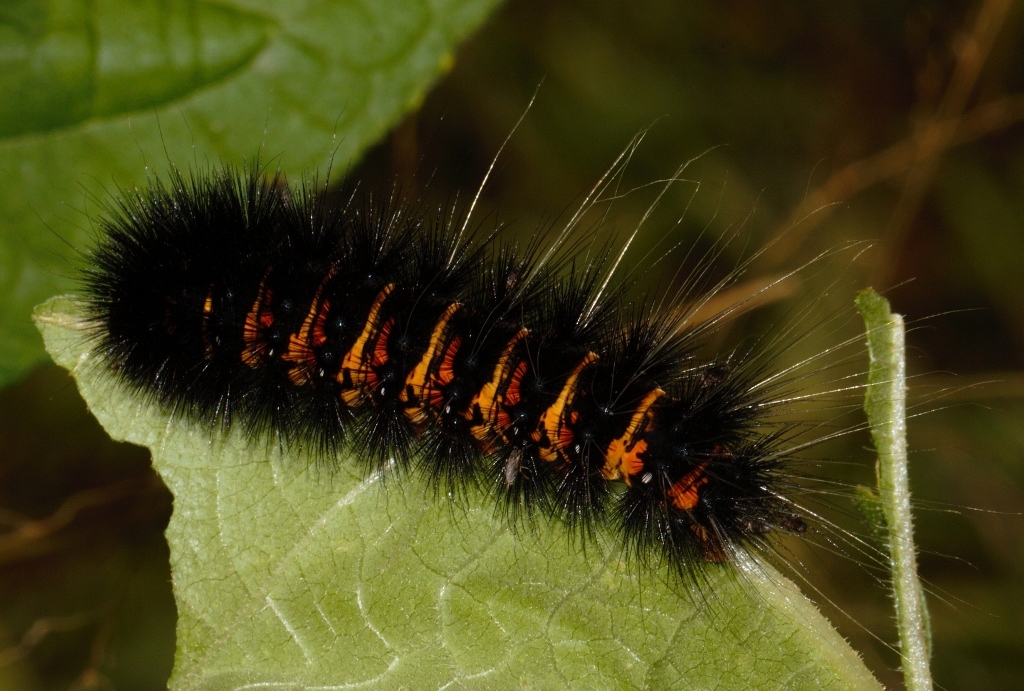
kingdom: Animalia
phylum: Arthropoda
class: Insecta
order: Lepidoptera
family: Erebidae
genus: Afromurzinia
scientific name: Afromurzinia lutescens
